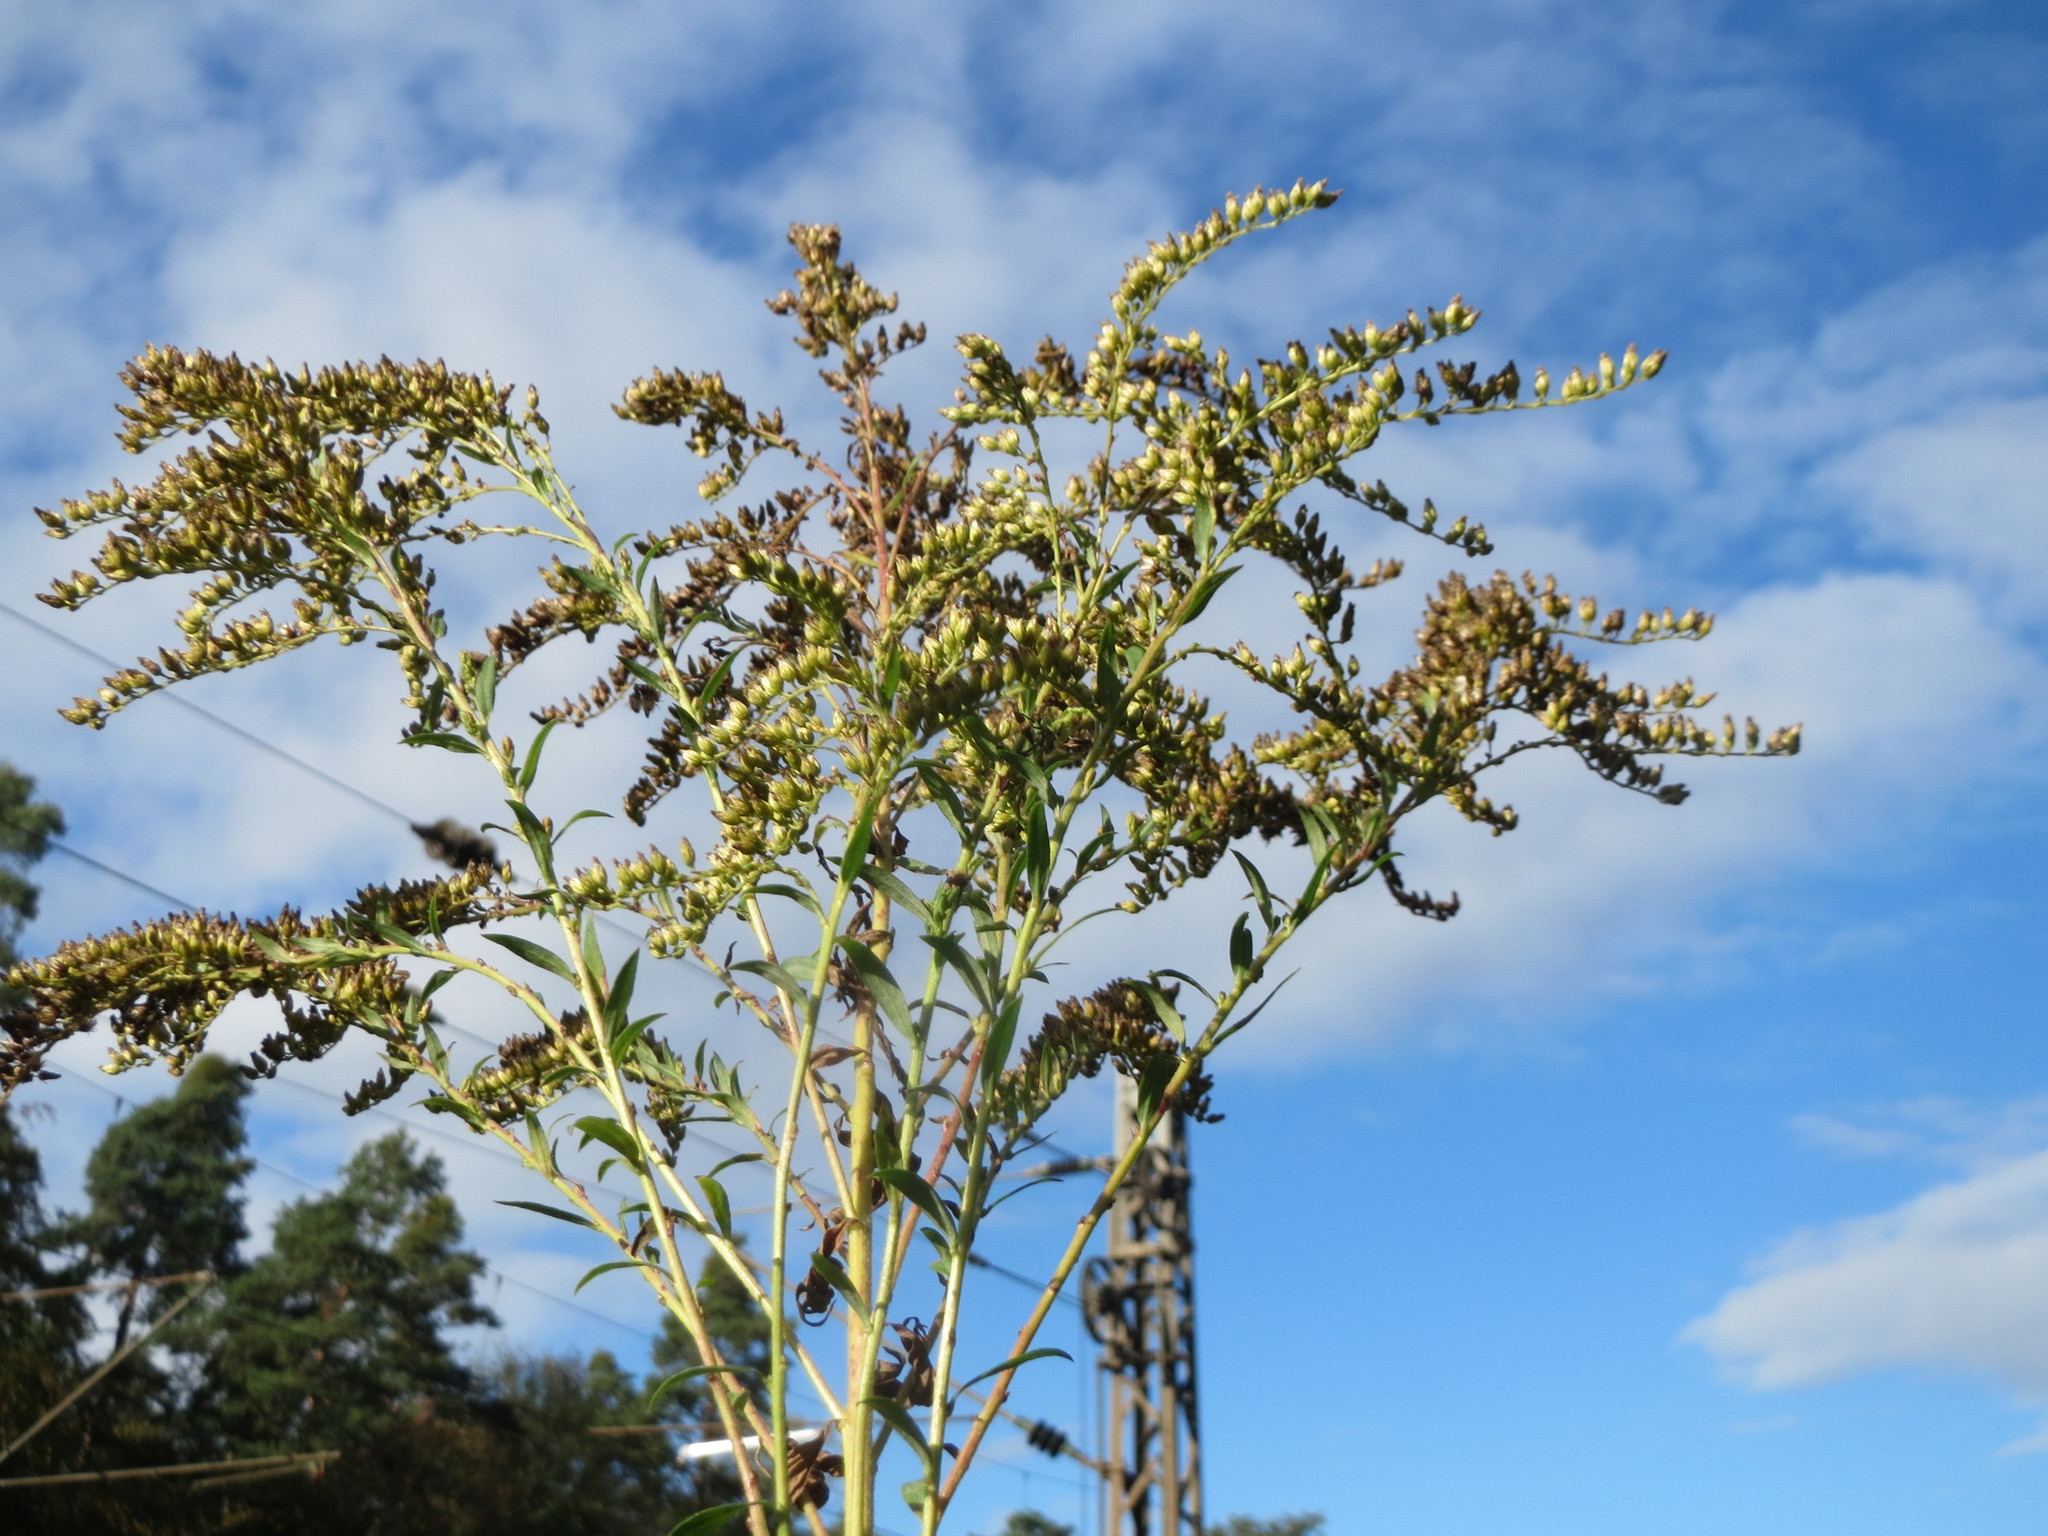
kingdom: Plantae
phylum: Tracheophyta
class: Magnoliopsida
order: Asterales
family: Asteraceae
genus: Solidago
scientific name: Solidago canadensis
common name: Canada goldenrod
